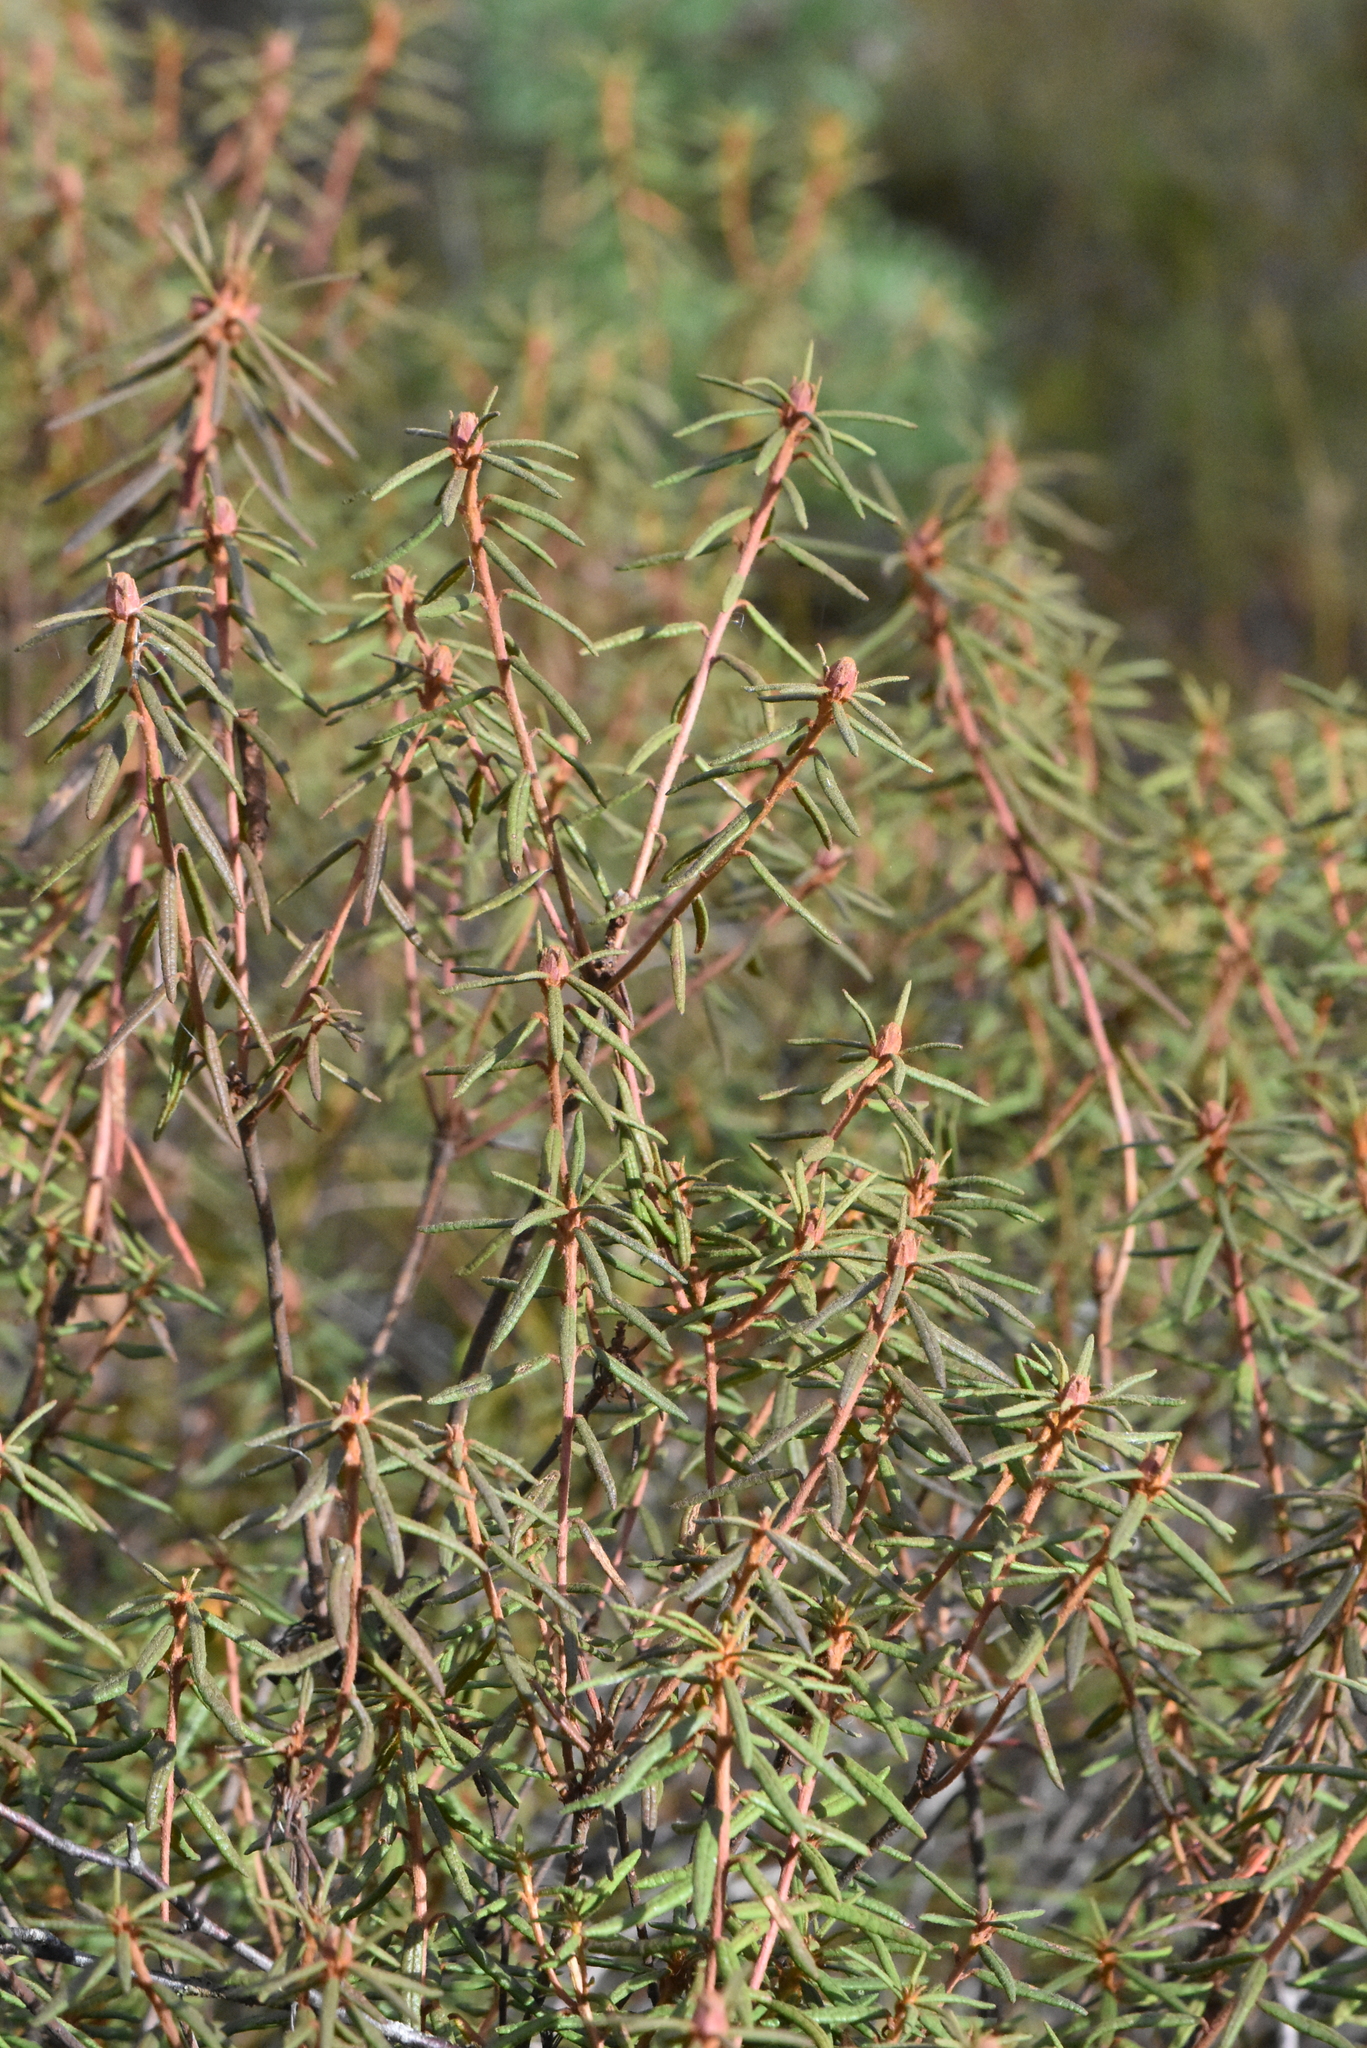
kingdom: Plantae
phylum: Tracheophyta
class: Magnoliopsida
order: Ericales
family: Ericaceae
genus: Rhododendron
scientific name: Rhododendron tomentosum
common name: Marsh labrador tea
